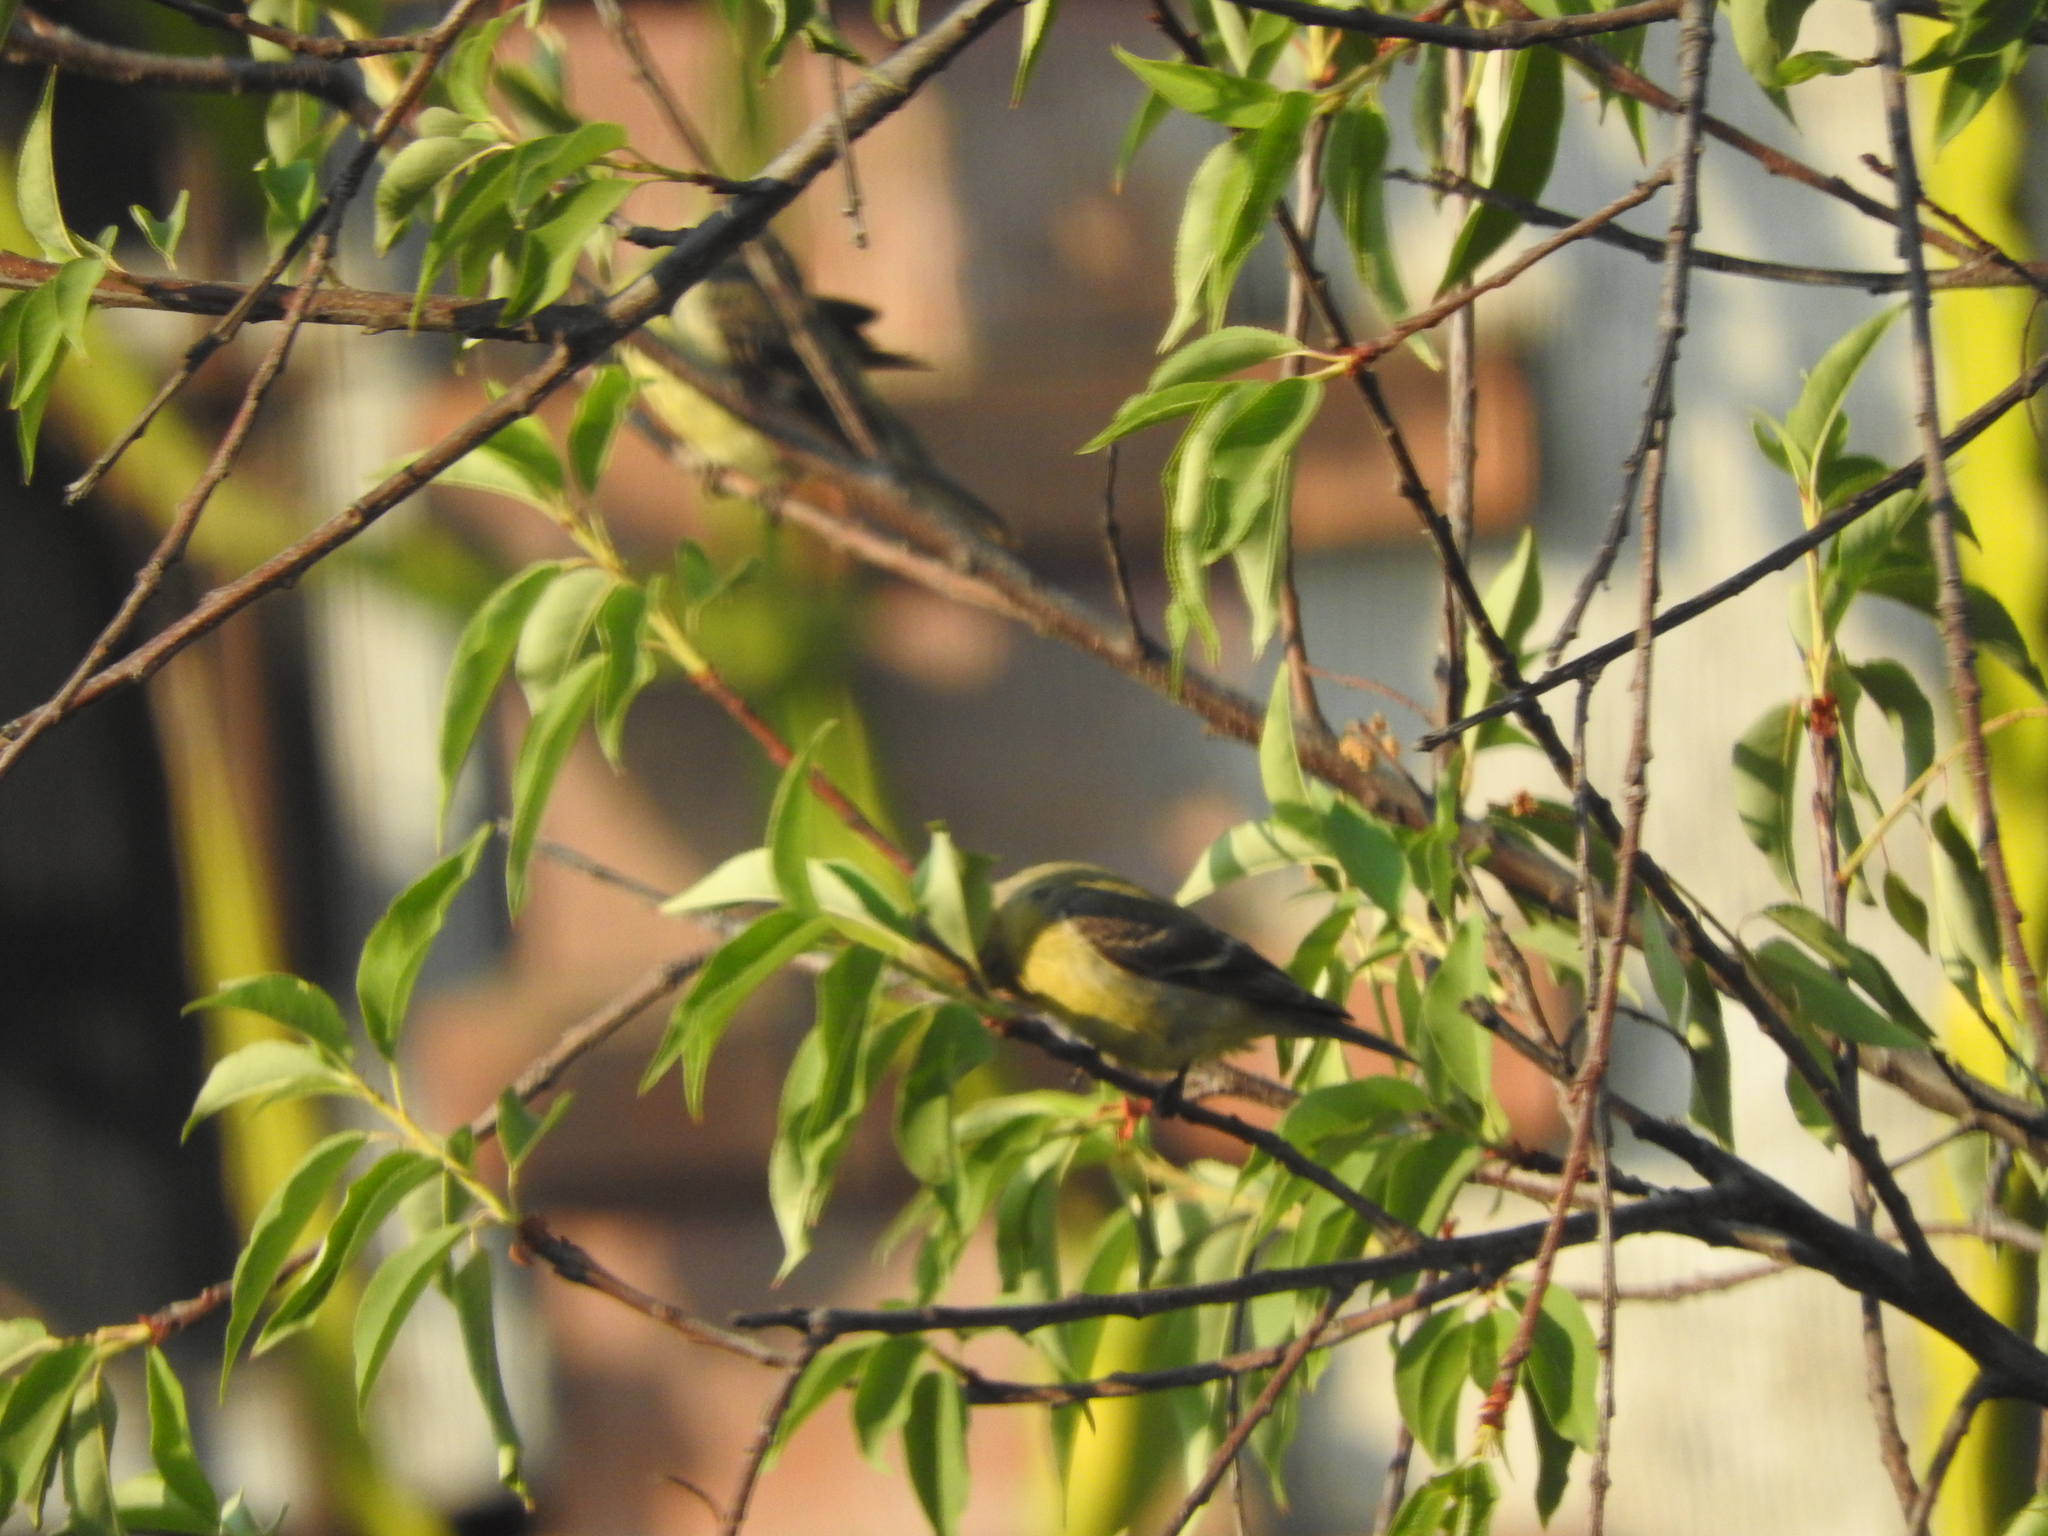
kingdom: Animalia
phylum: Chordata
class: Aves
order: Passeriformes
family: Fringillidae
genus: Spinus
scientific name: Spinus psaltria
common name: Lesser goldfinch
